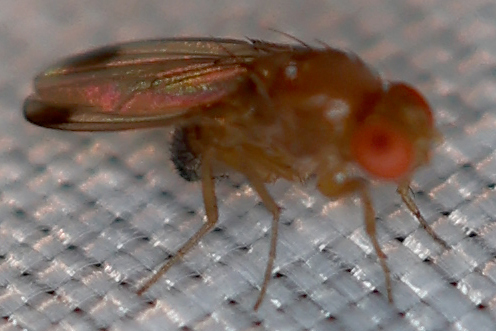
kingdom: Animalia
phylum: Arthropoda
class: Insecta
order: Diptera
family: Drosophilidae
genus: Drosophila
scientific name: Drosophila suzukii
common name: Spotted-wing drosophila
